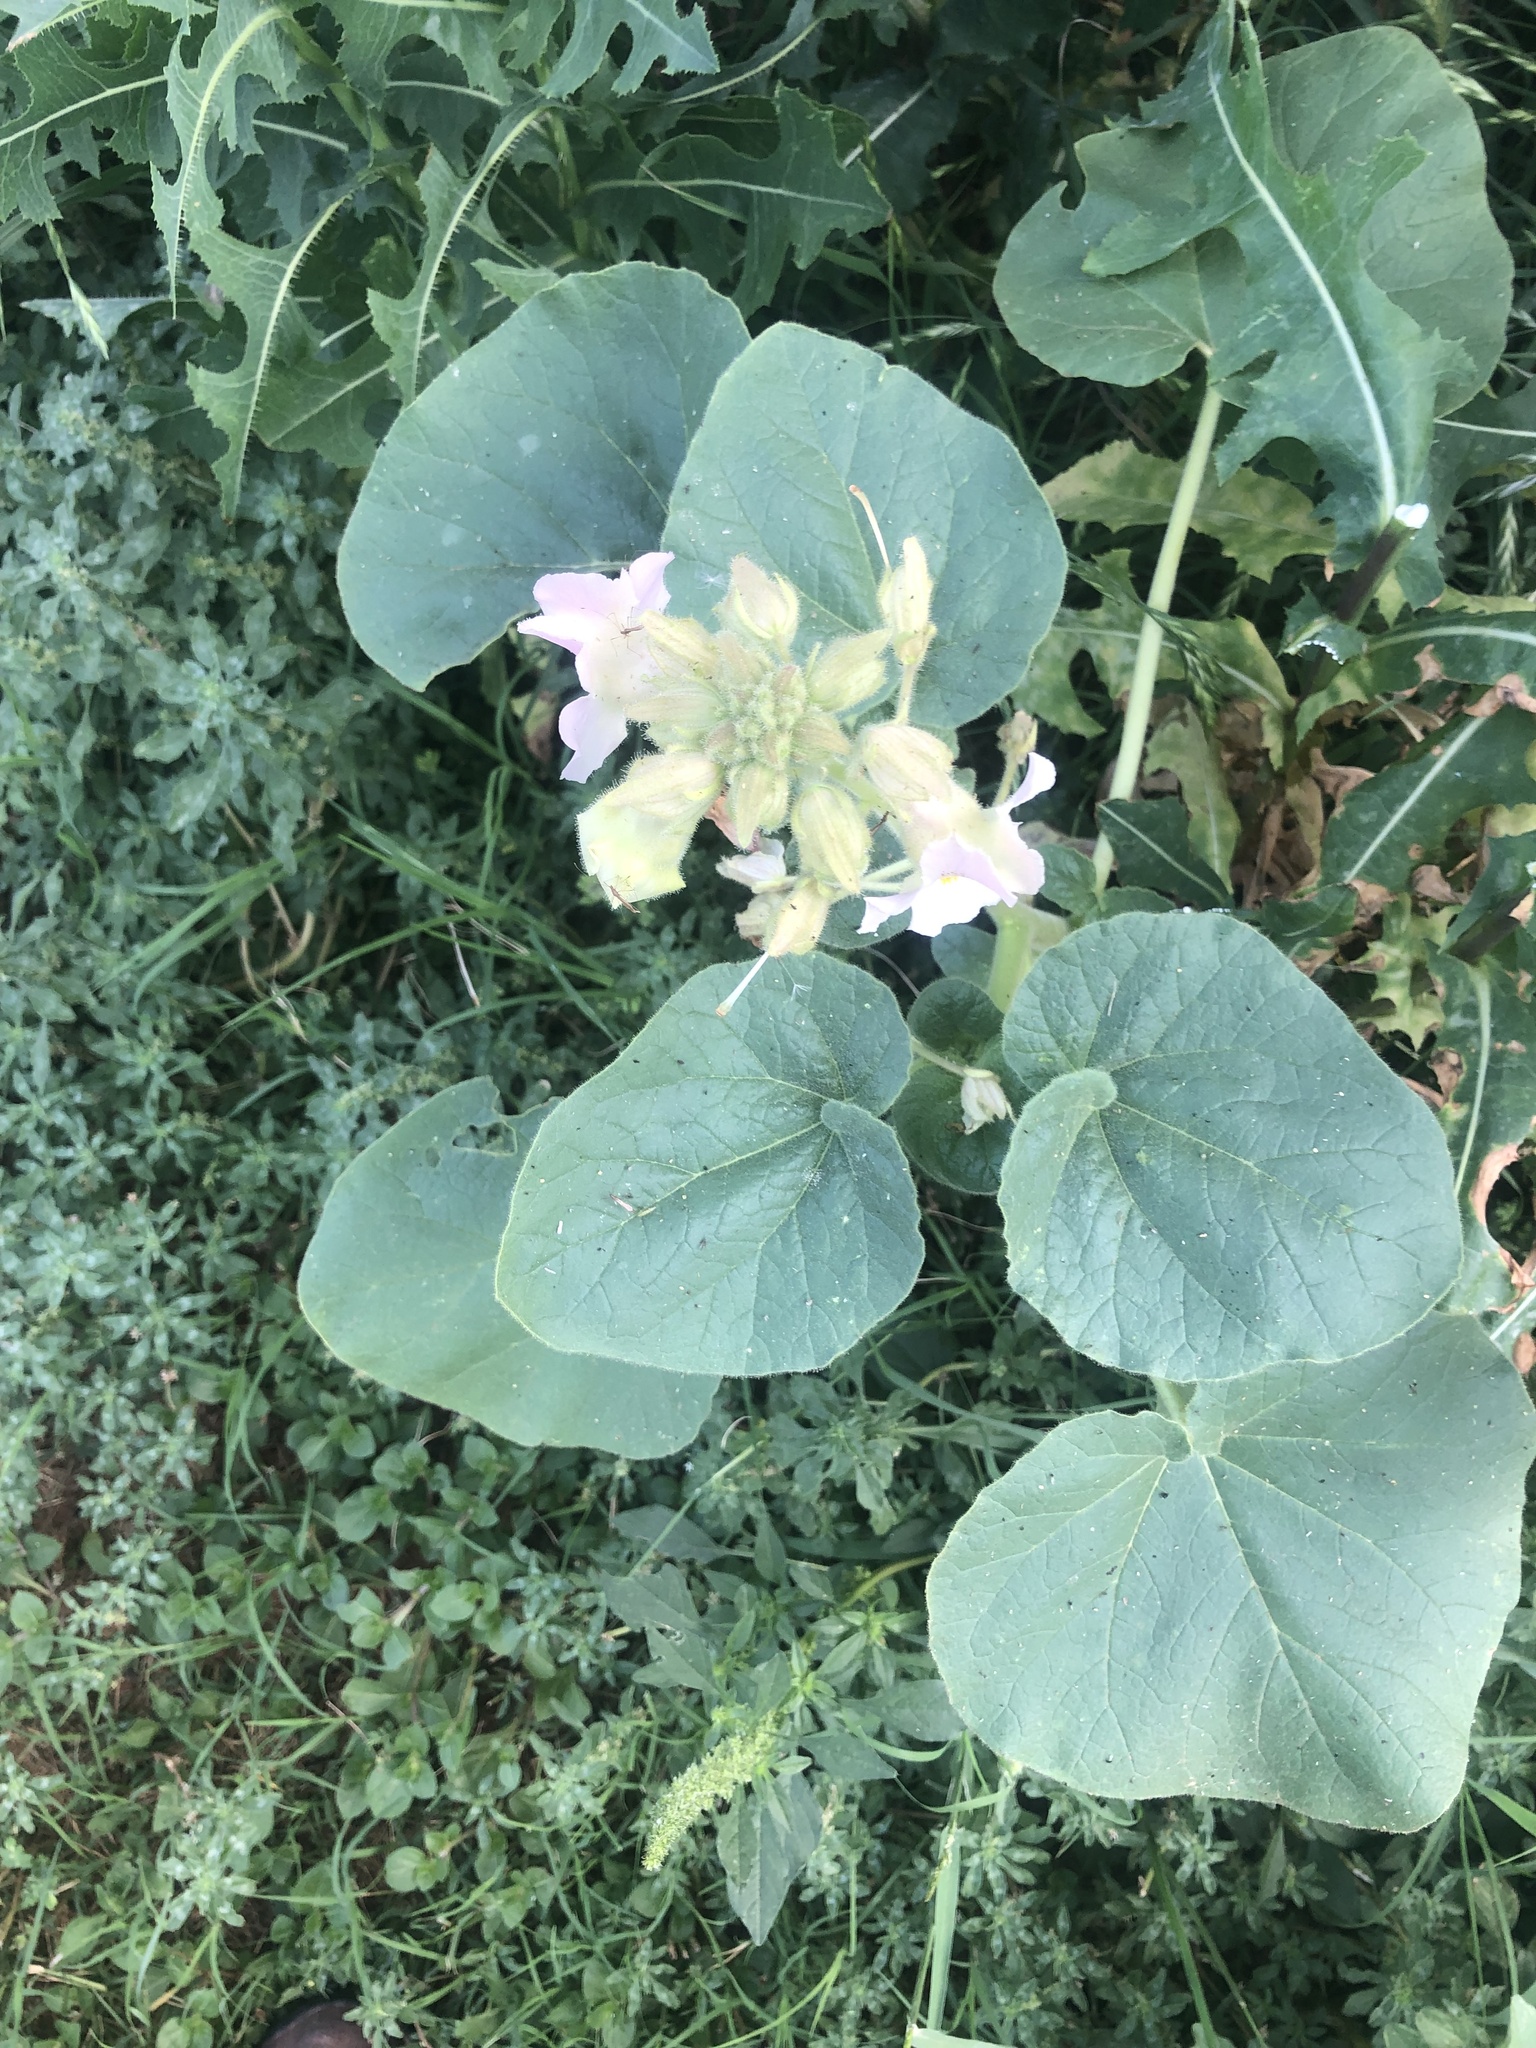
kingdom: Plantae
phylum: Tracheophyta
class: Magnoliopsida
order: Lamiales
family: Martyniaceae
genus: Proboscidea
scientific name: Proboscidea louisianica
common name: Elephant tusks
